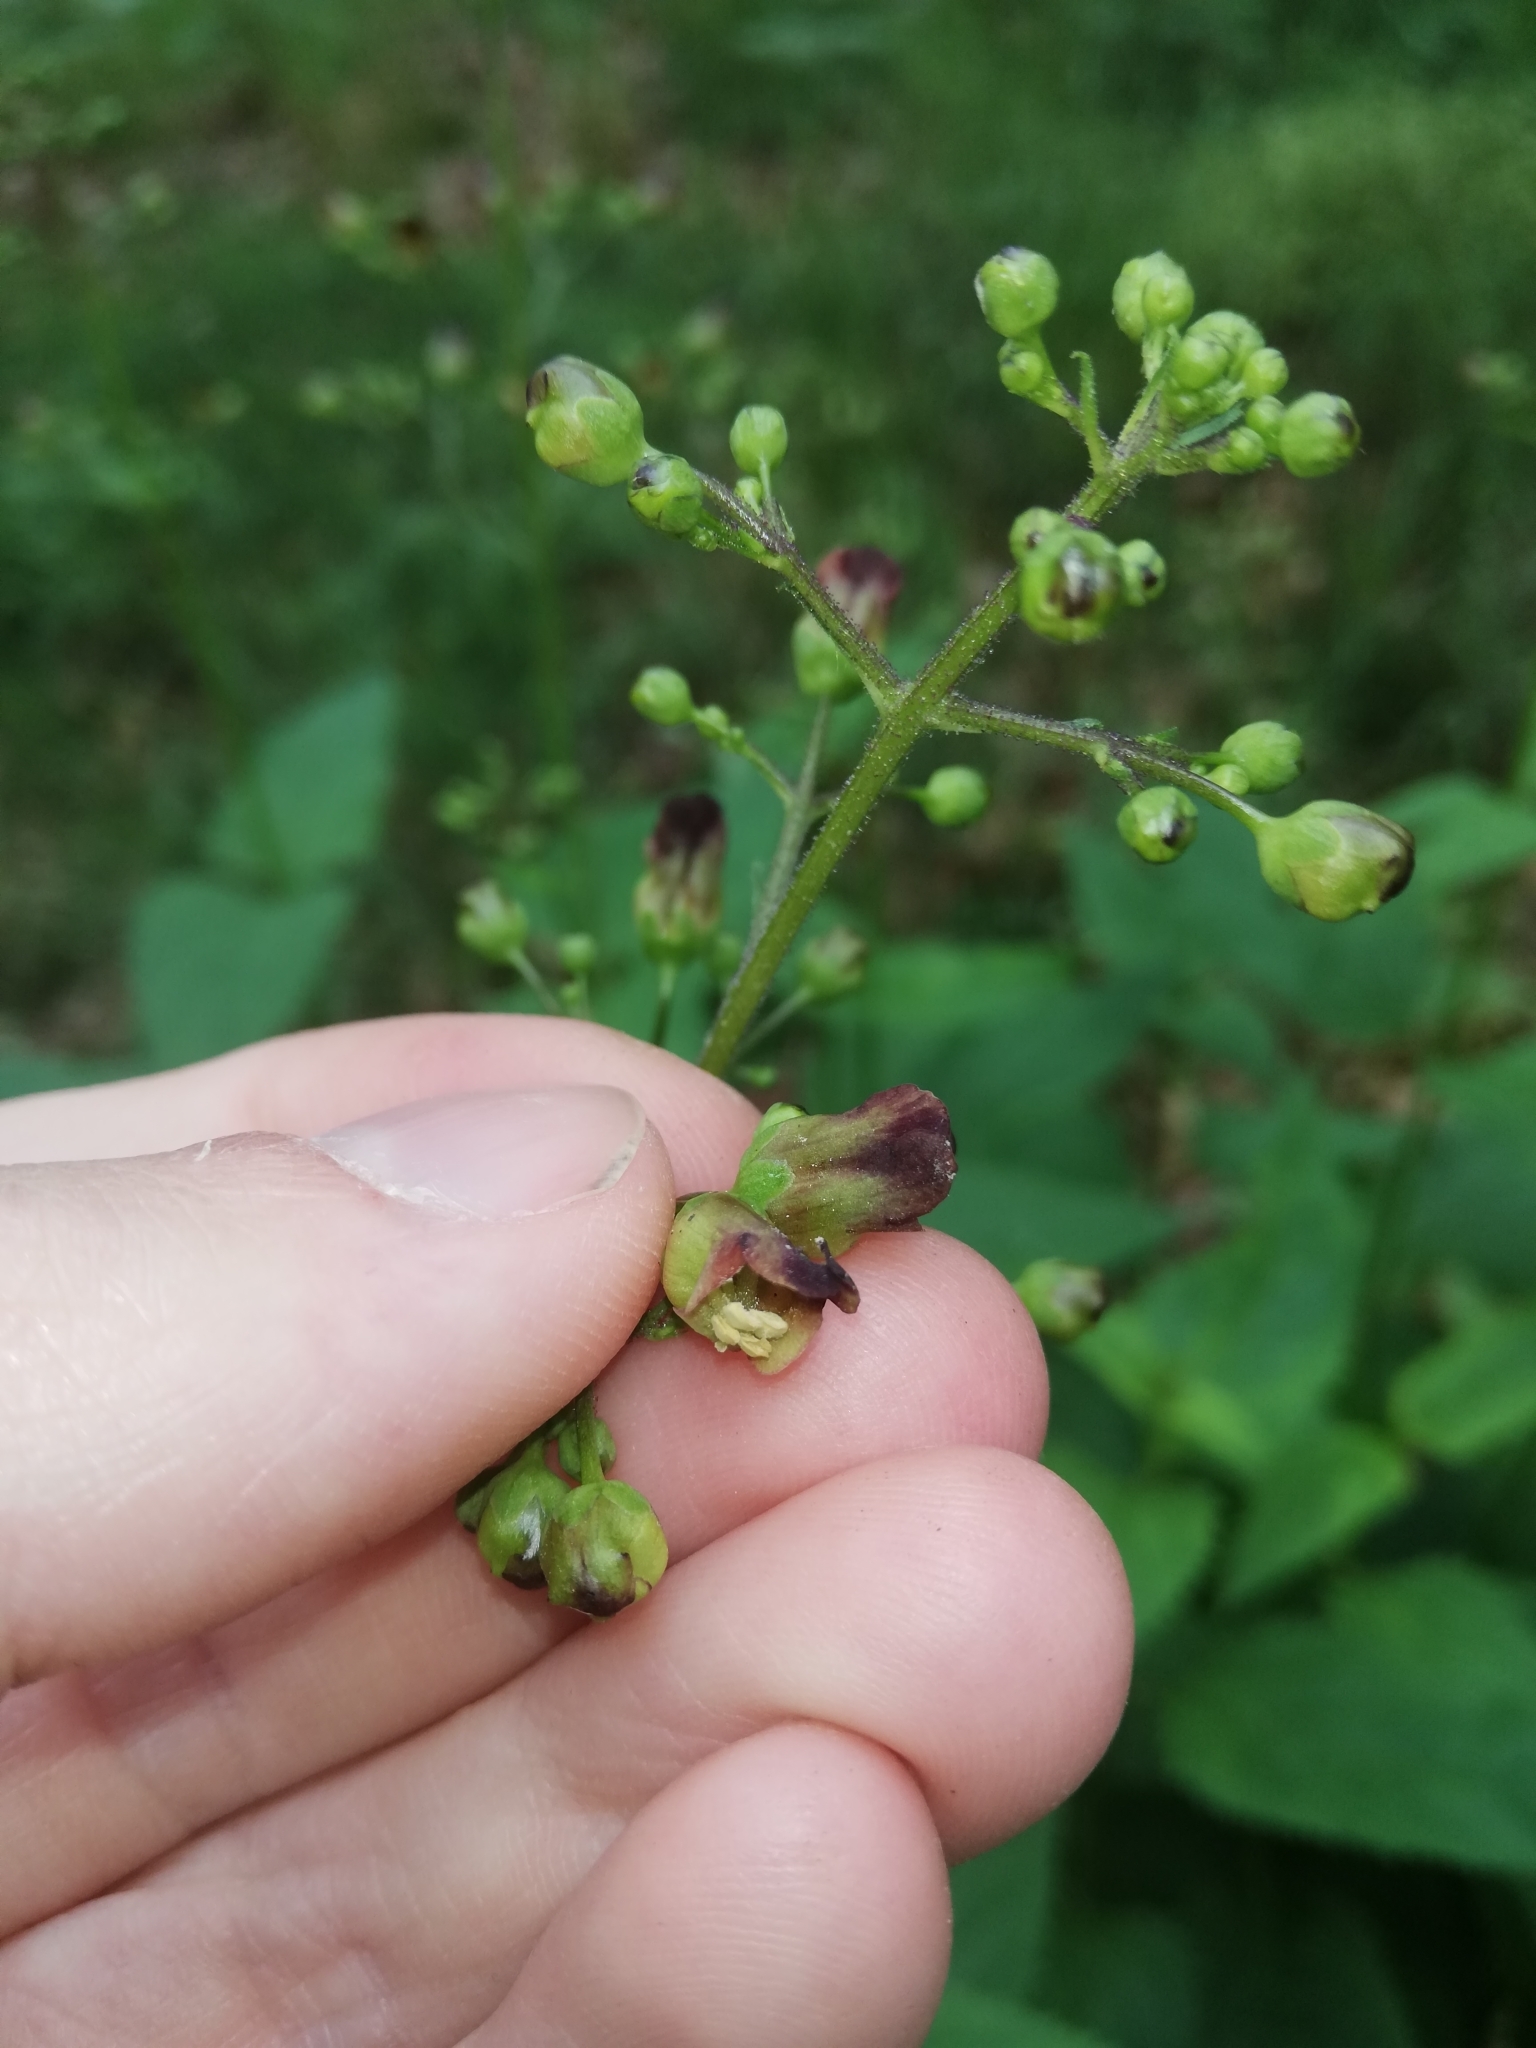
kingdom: Plantae
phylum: Tracheophyta
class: Magnoliopsida
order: Lamiales
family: Scrophulariaceae
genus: Scrophularia
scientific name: Scrophularia nodosa
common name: Common figwort
